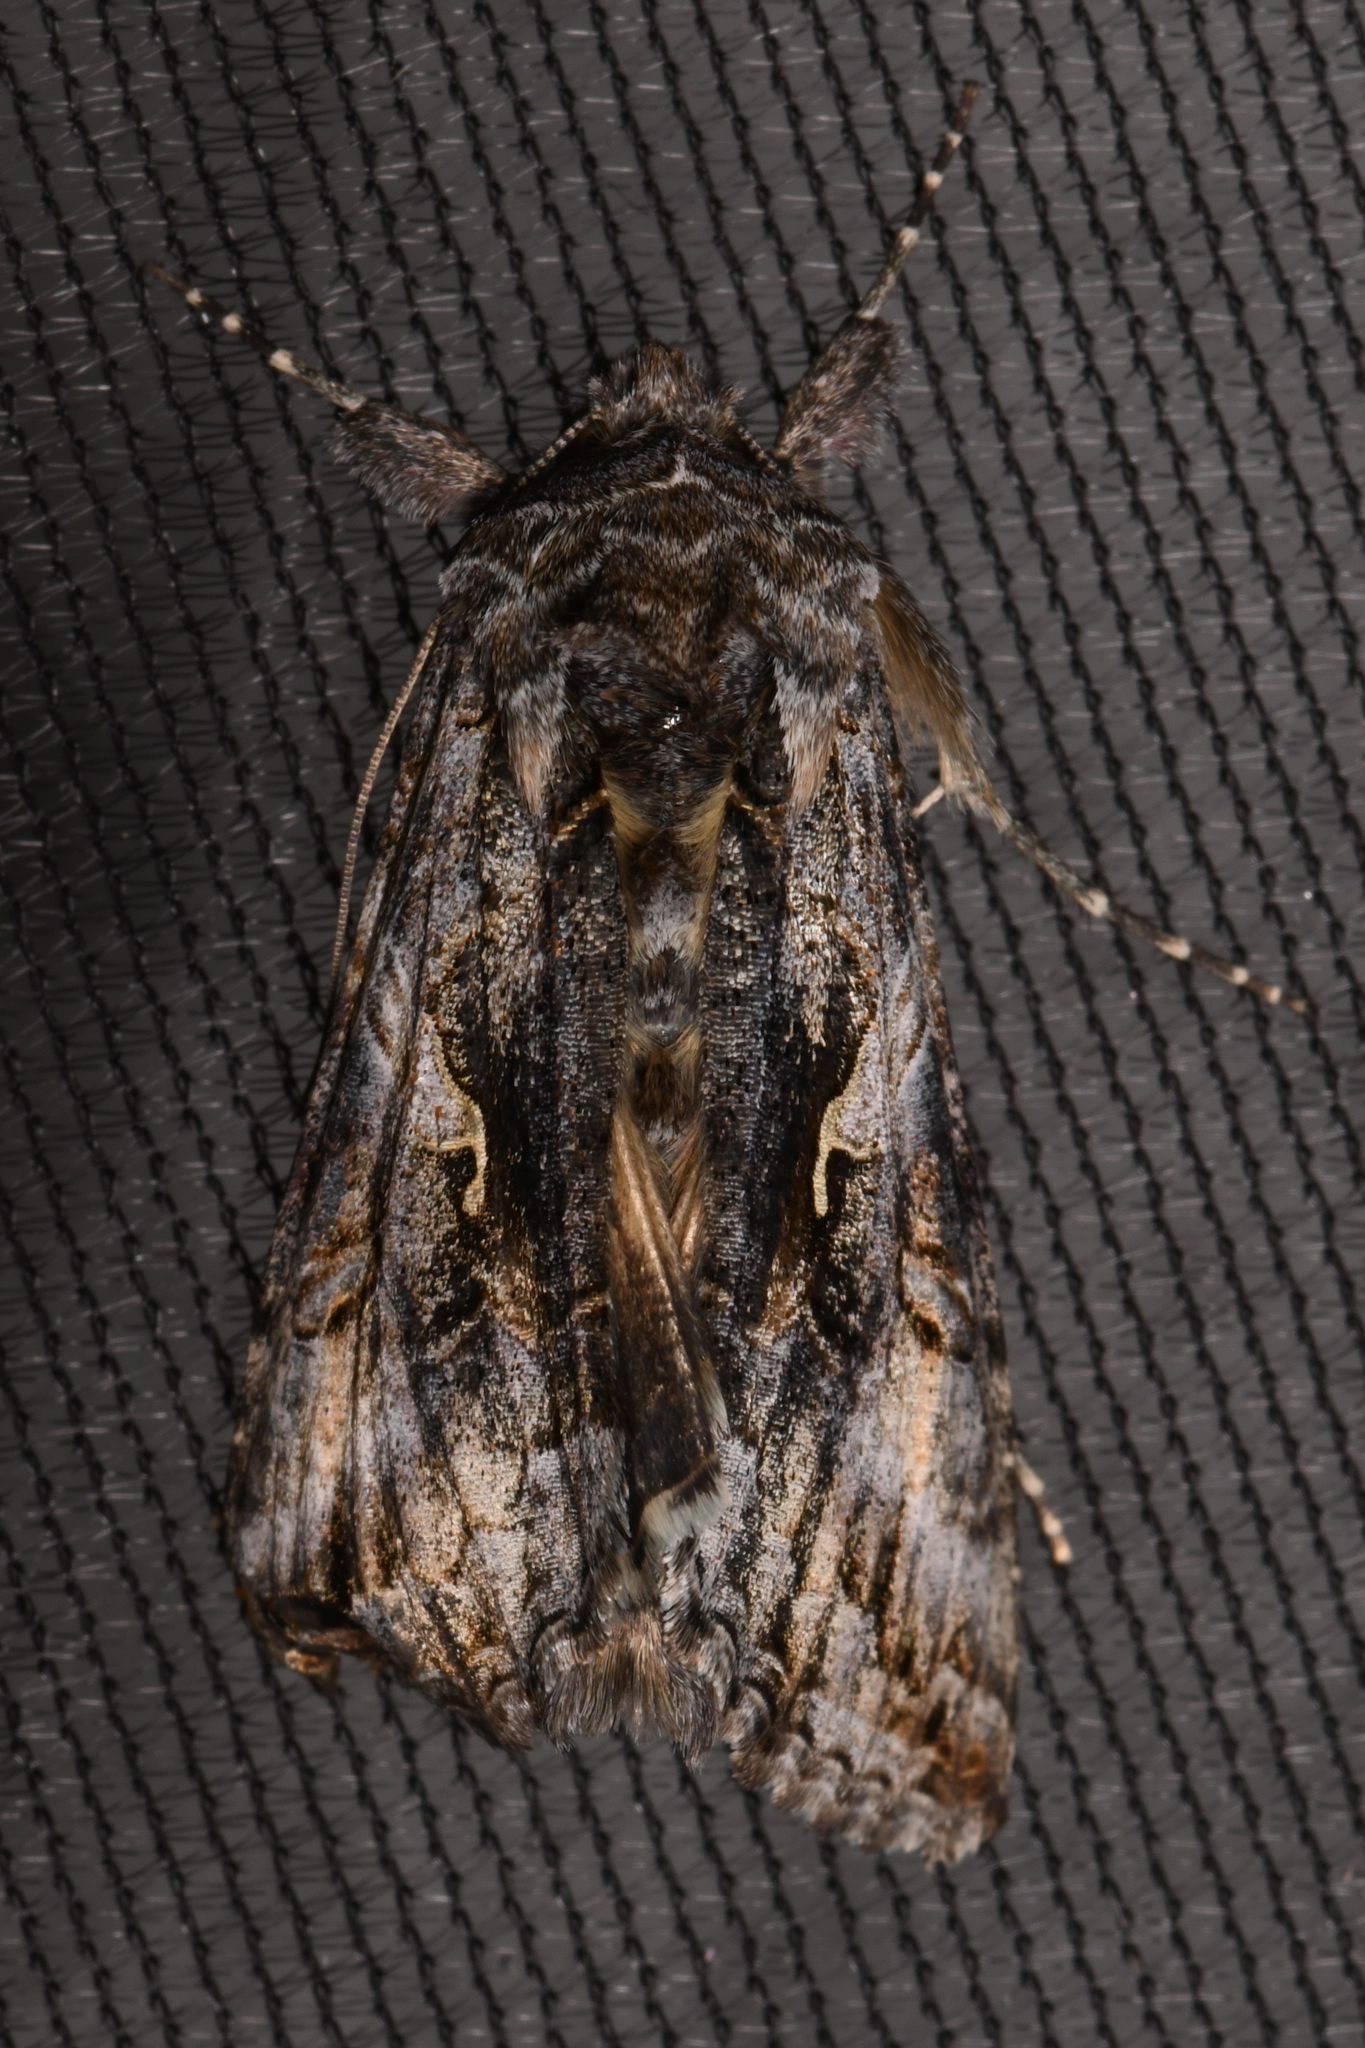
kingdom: Animalia
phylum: Arthropoda
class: Insecta
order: Lepidoptera
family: Noctuidae
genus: Autographa
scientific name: Autographa californica
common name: Alfalfa looper
